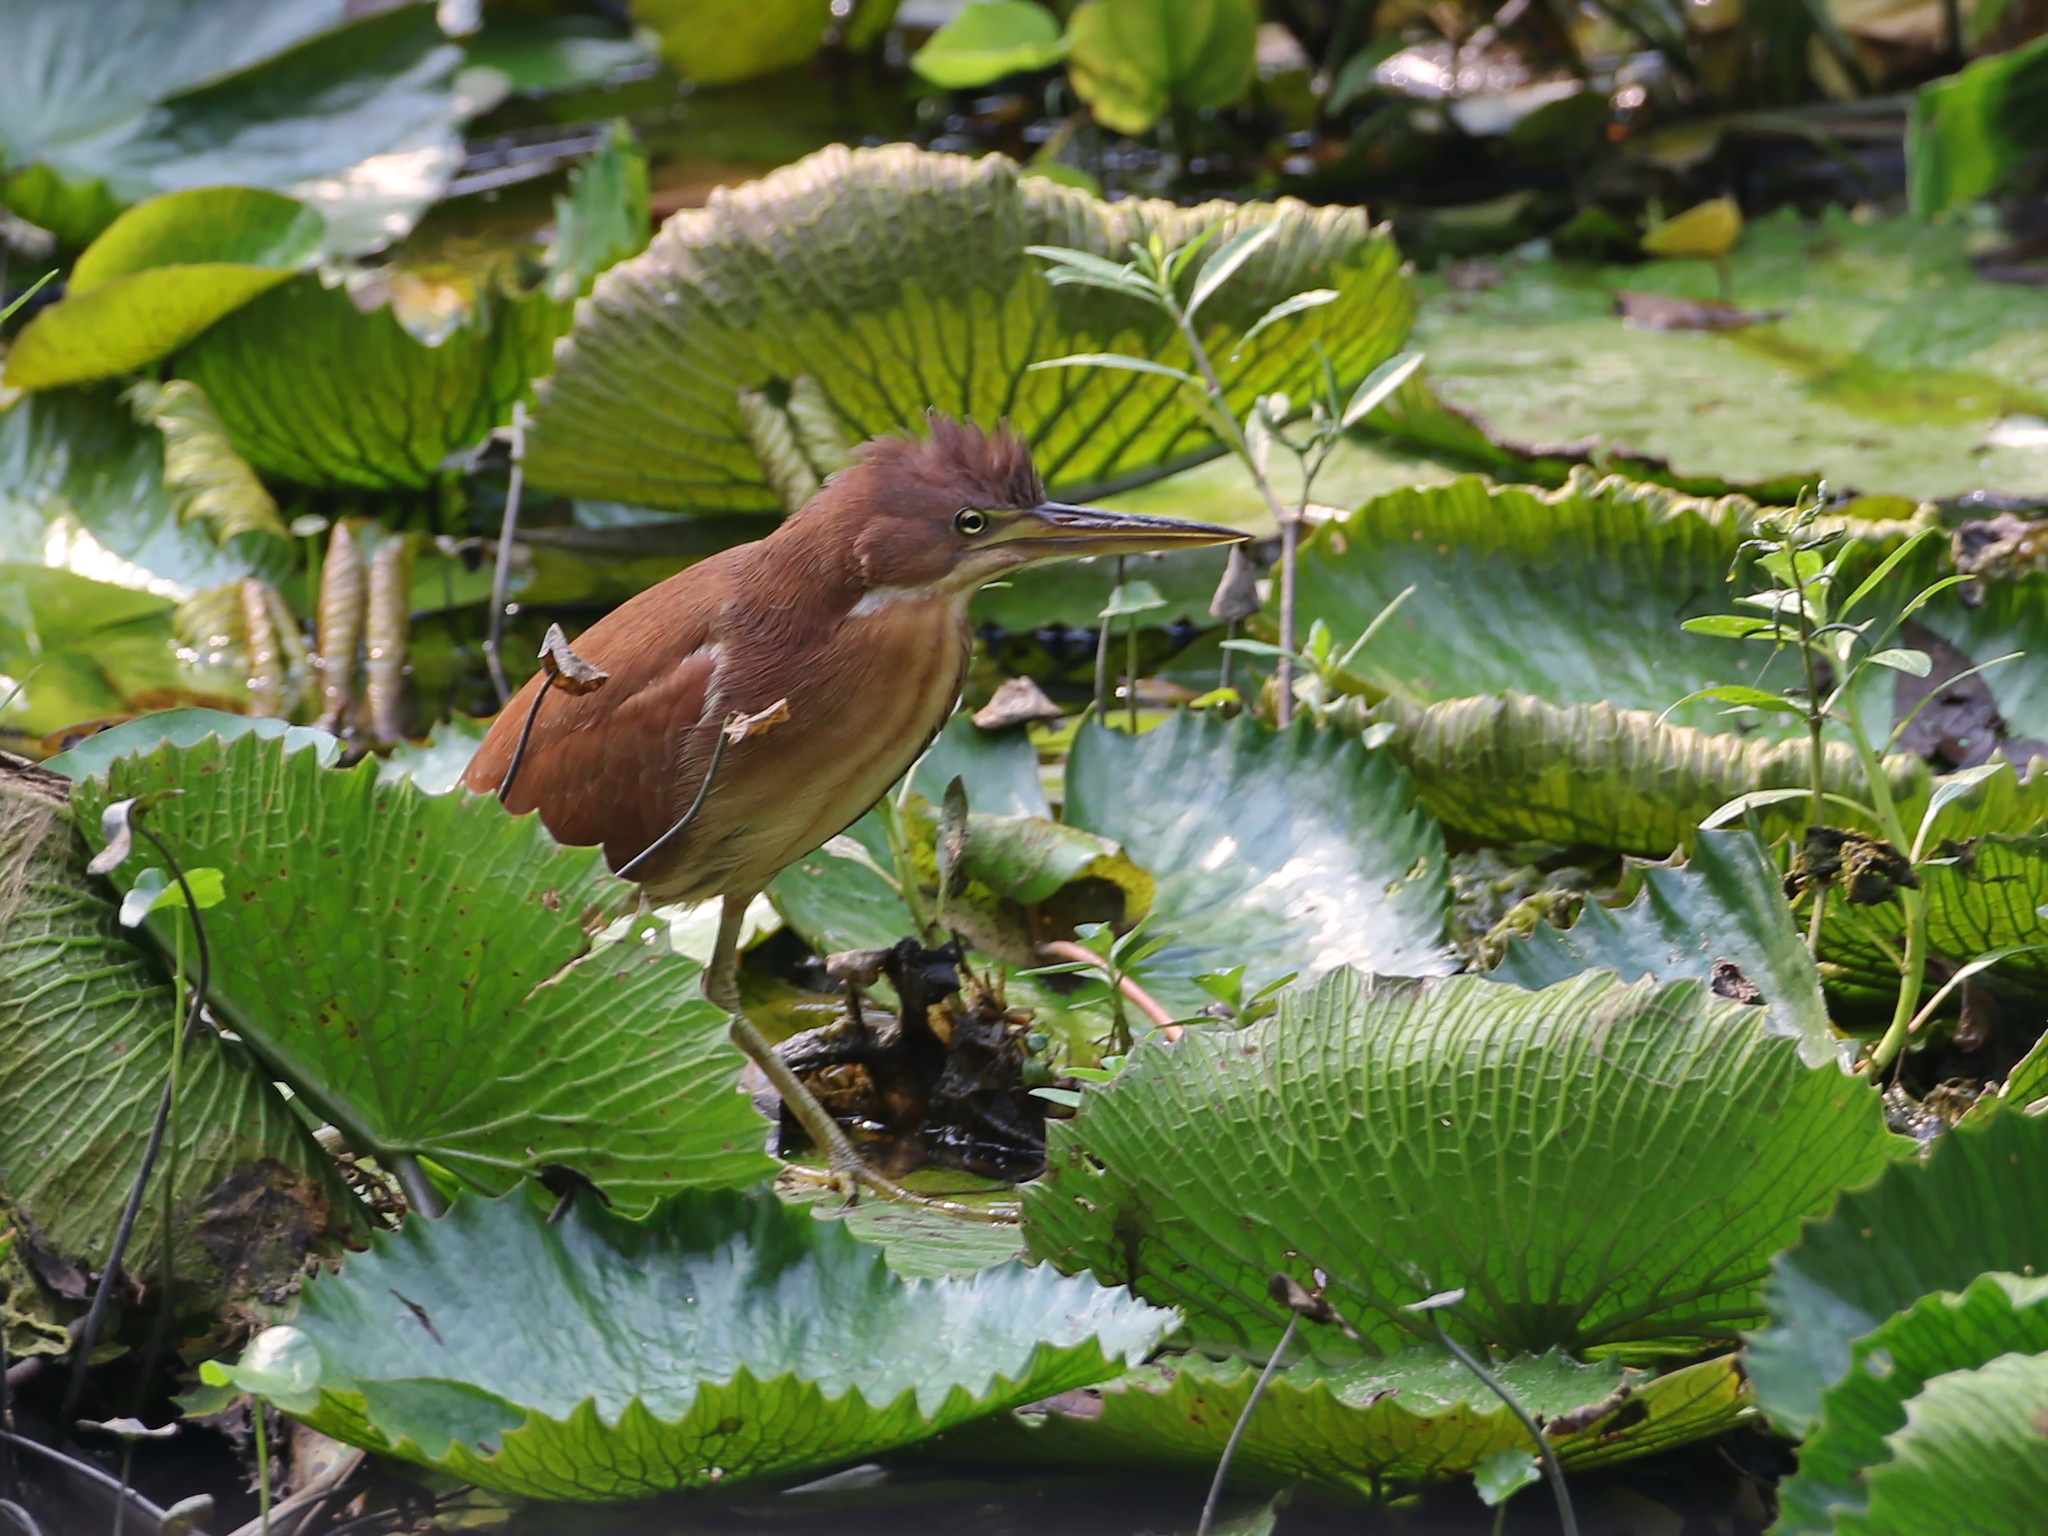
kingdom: Animalia
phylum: Chordata
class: Aves
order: Pelecaniformes
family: Ardeidae
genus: Ixobrychus
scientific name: Ixobrychus cinnamomeus
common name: Cinnamon bittern
